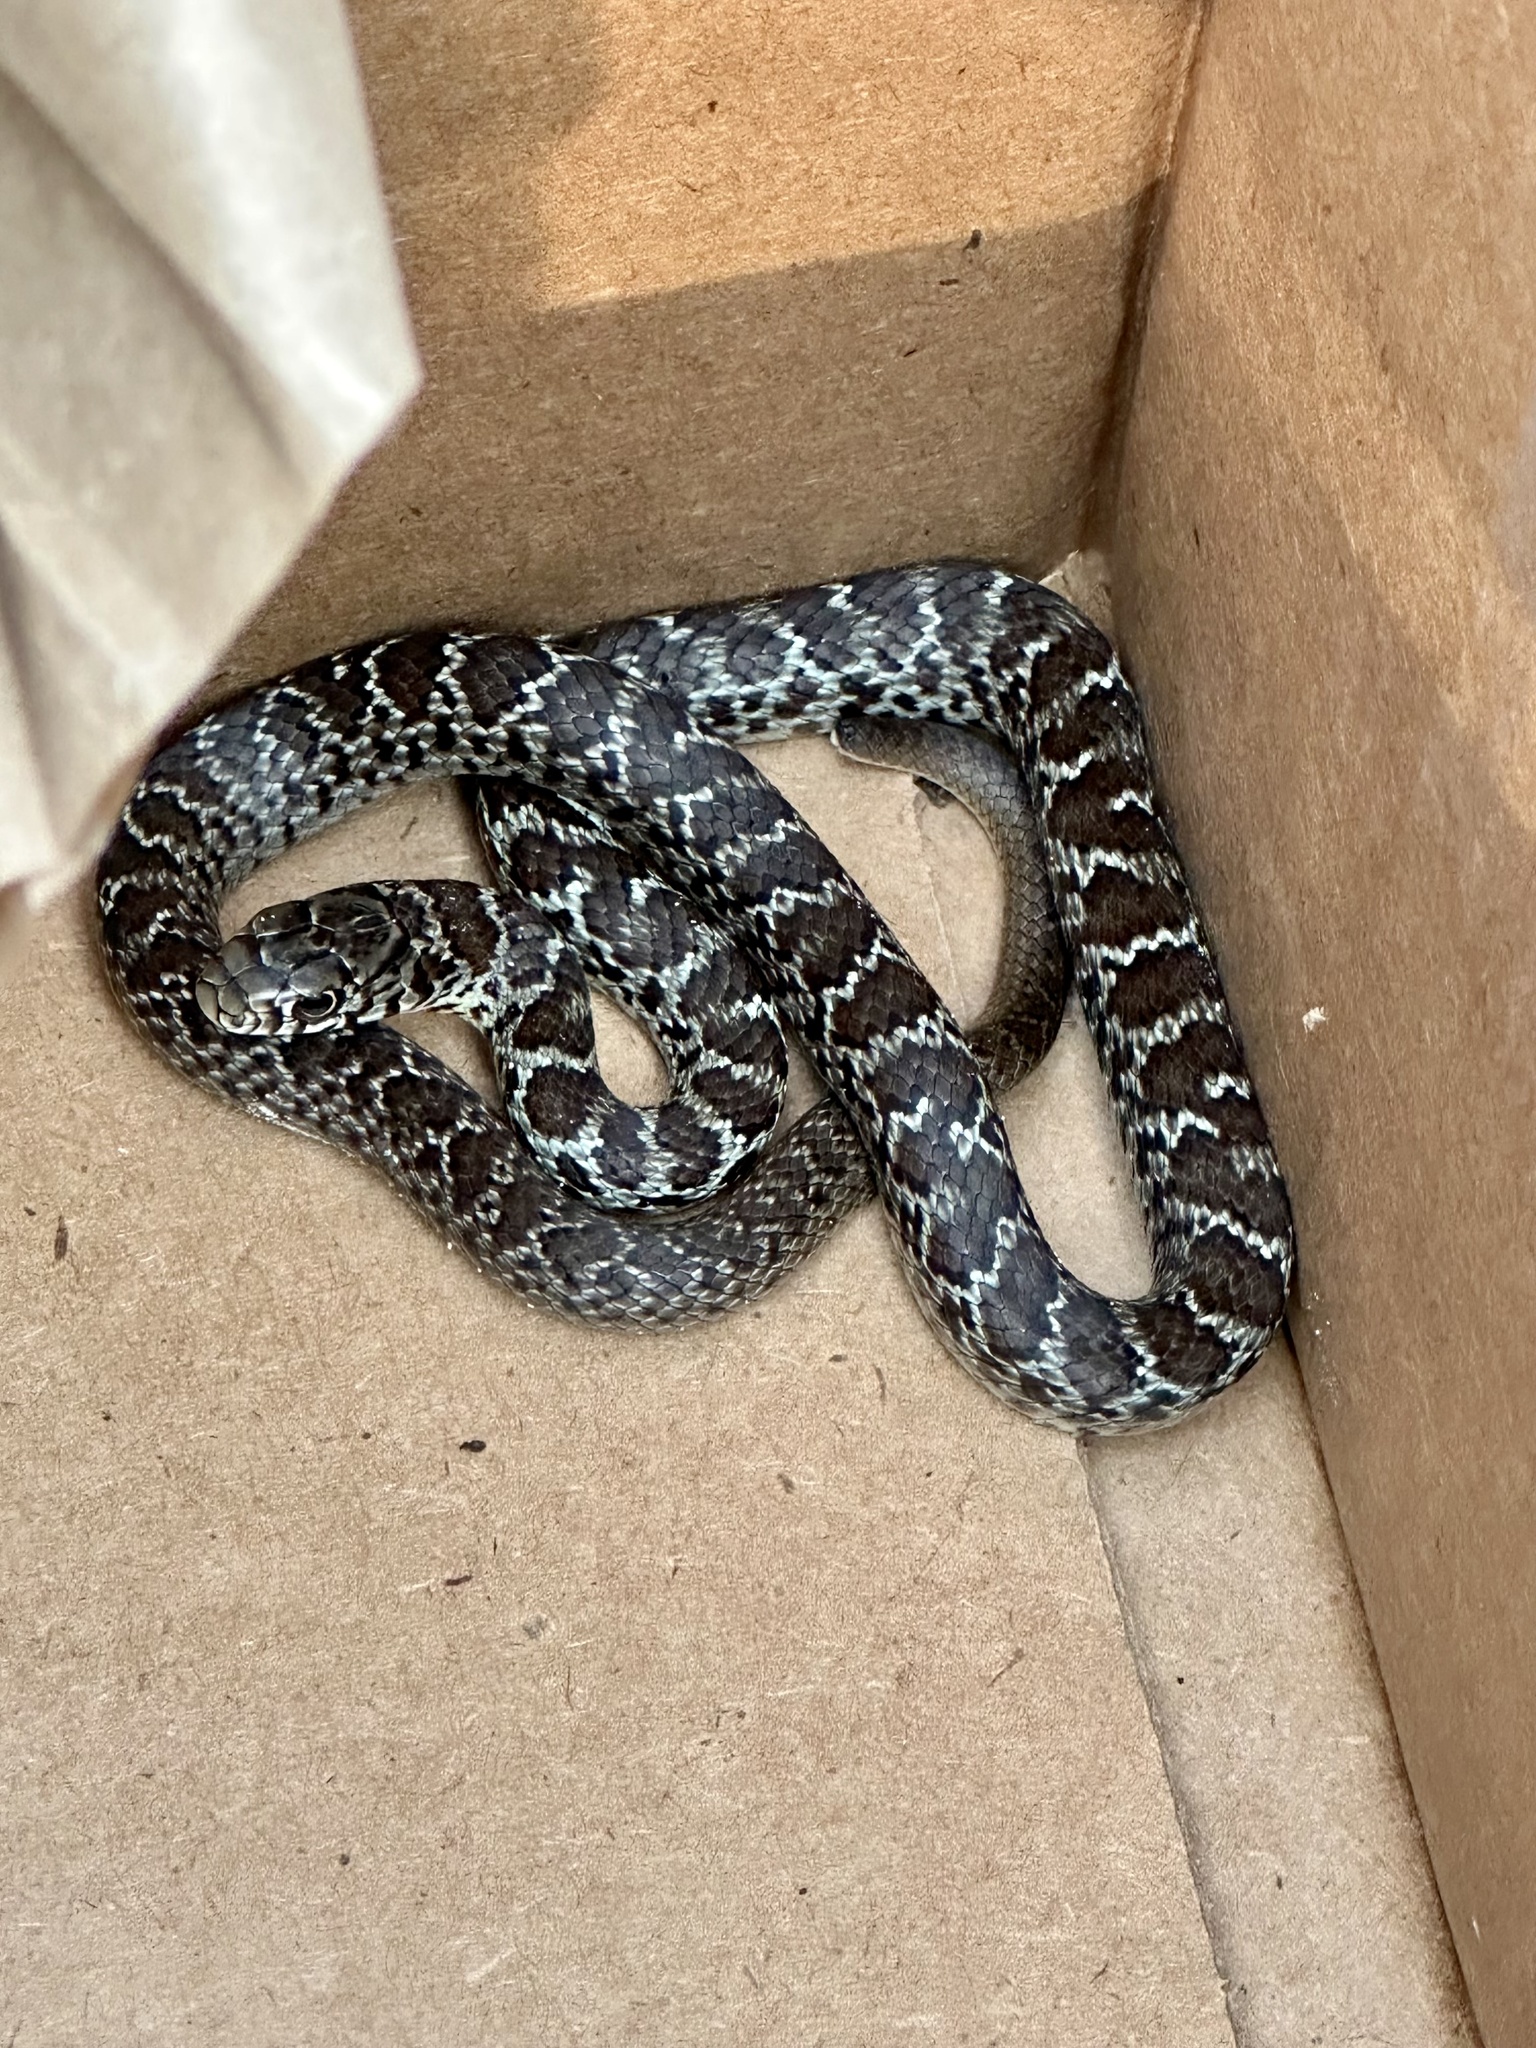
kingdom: Animalia
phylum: Chordata
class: Squamata
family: Colubridae
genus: Coluber
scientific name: Coluber constrictor
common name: Eastern racer
